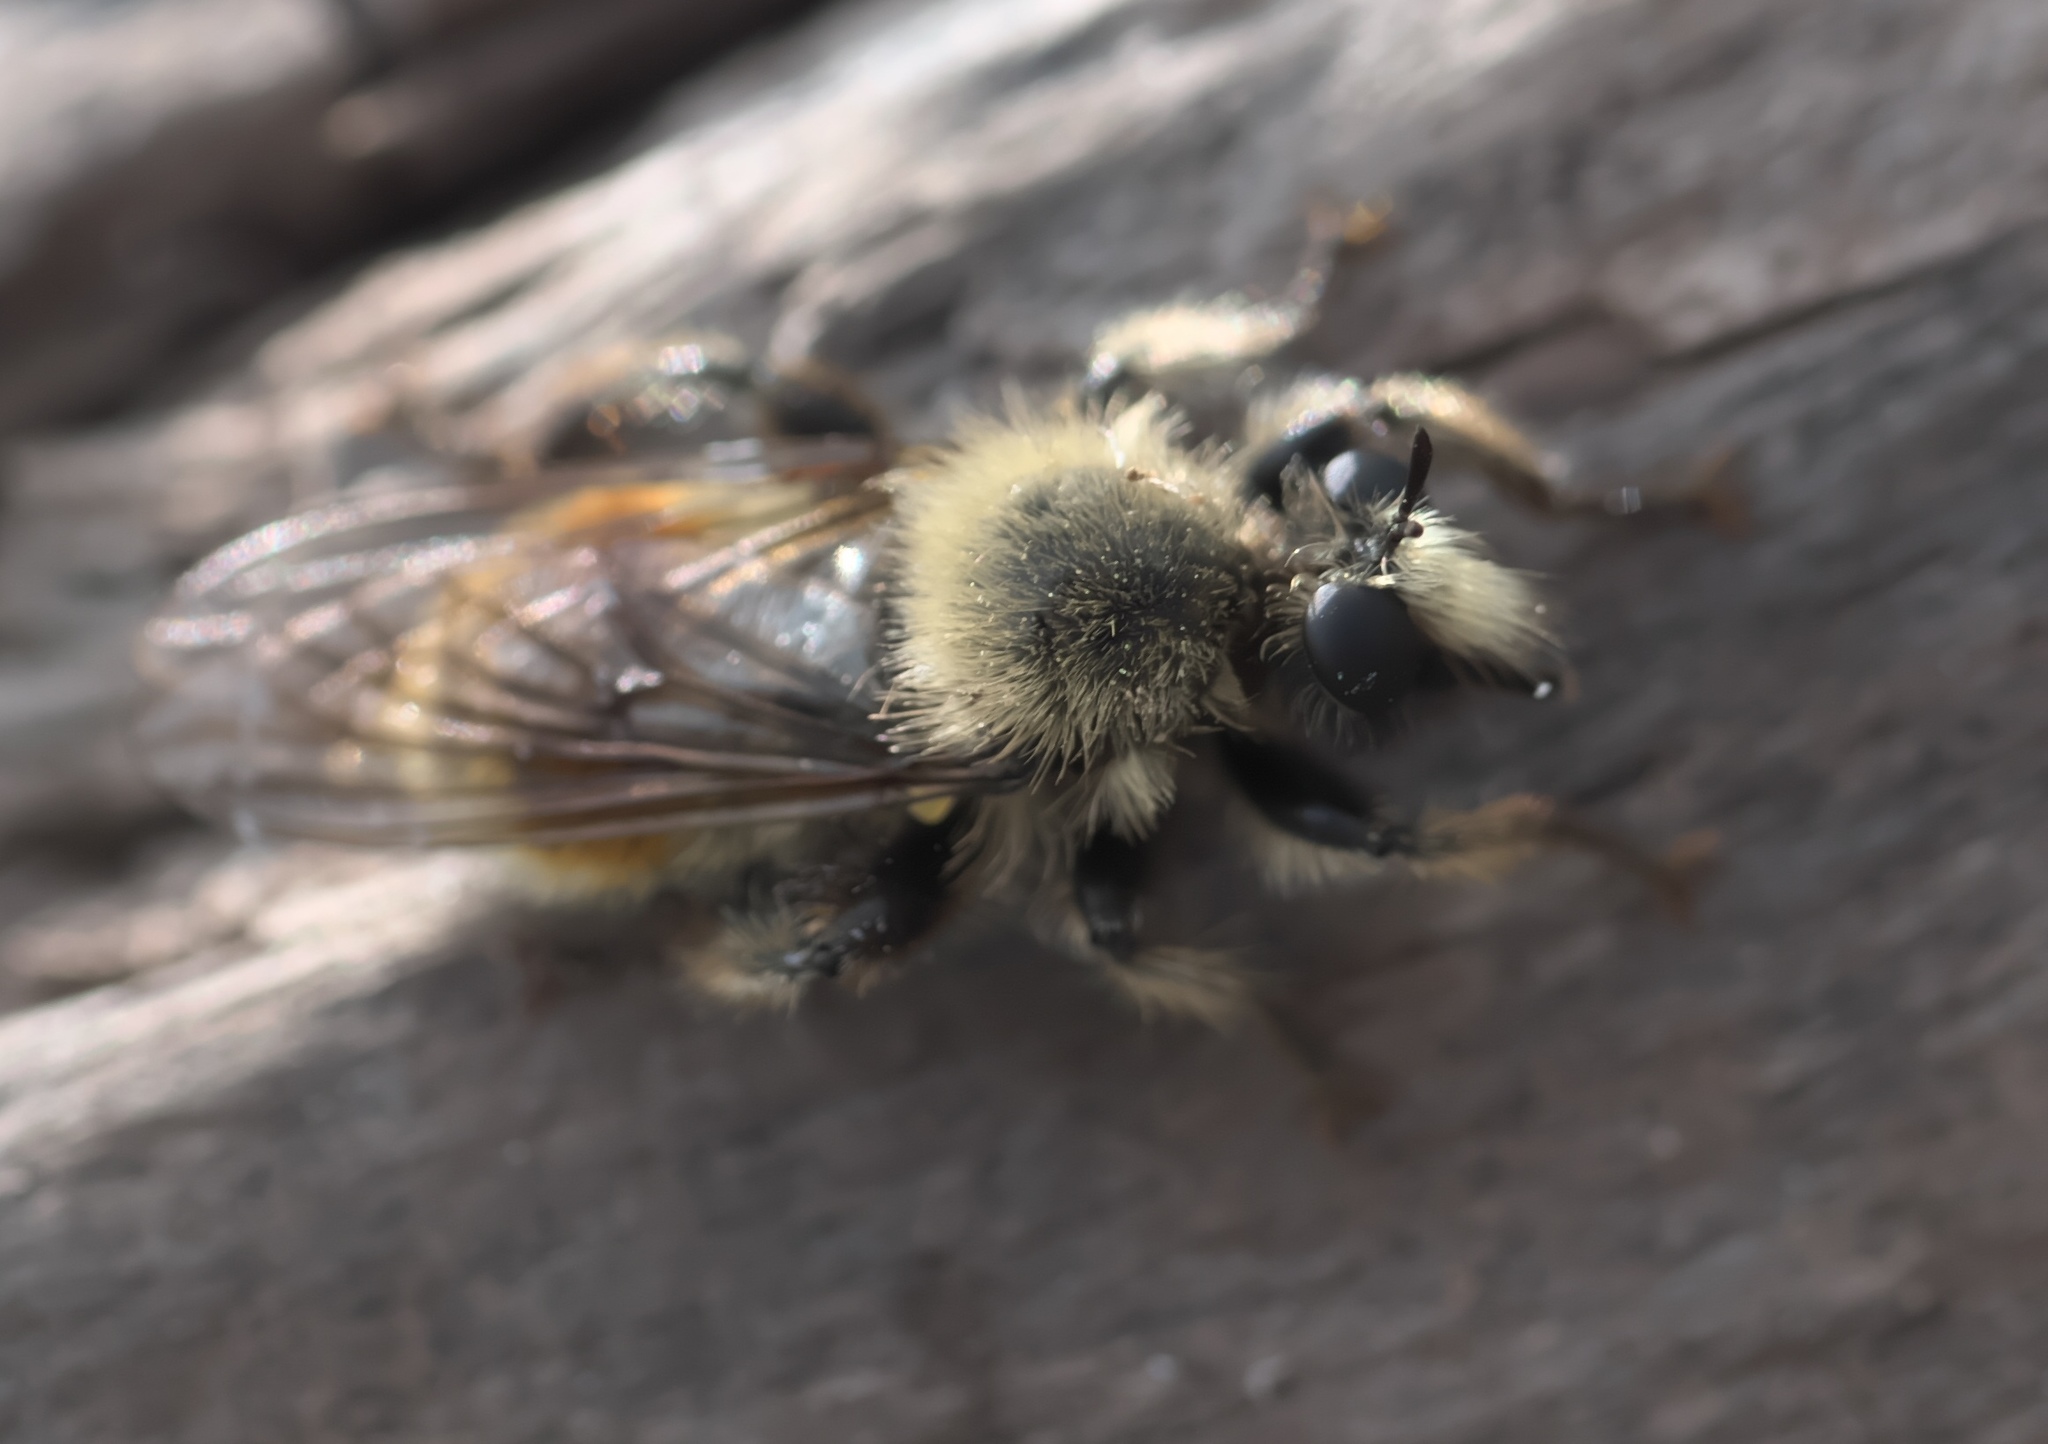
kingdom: Animalia
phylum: Arthropoda
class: Insecta
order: Diptera
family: Asilidae
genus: Laphria
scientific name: Laphria fernaldi
